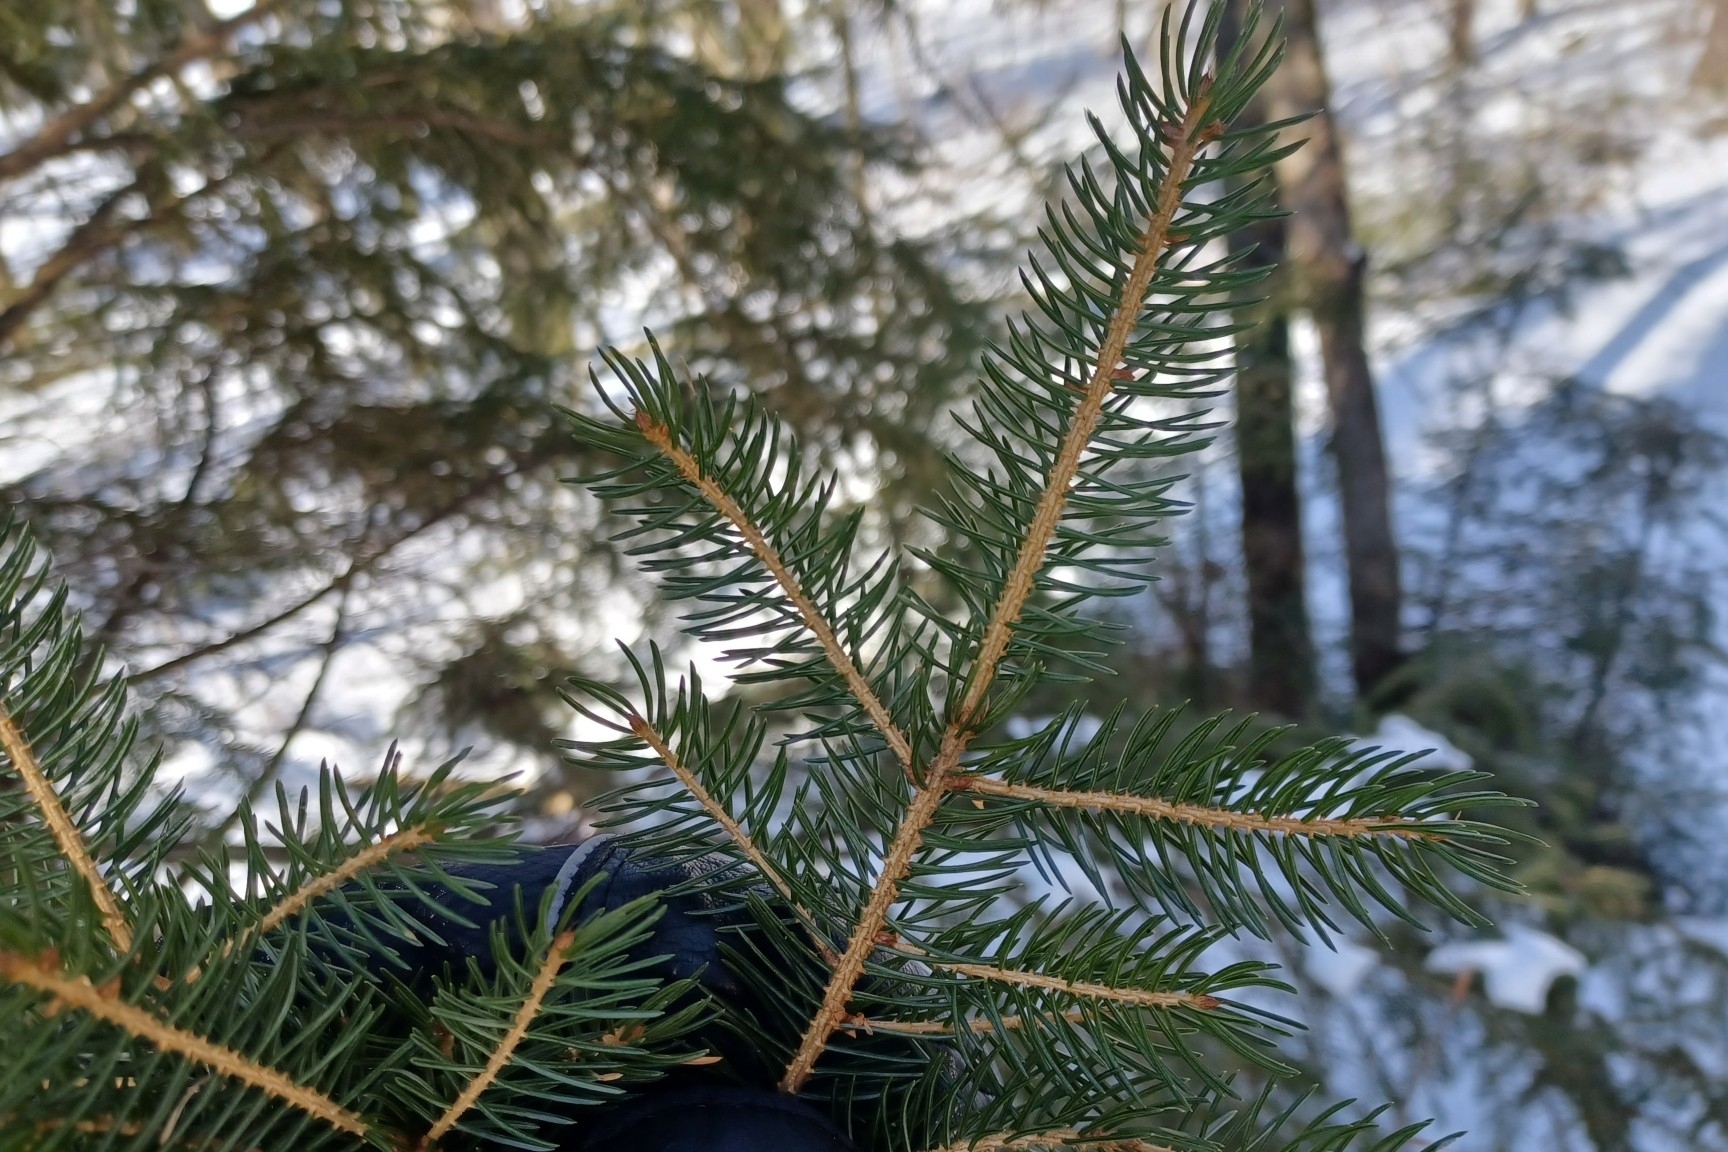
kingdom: Plantae
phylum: Tracheophyta
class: Pinopsida
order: Pinales
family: Pinaceae
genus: Picea
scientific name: Picea rubens
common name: Red spruce
